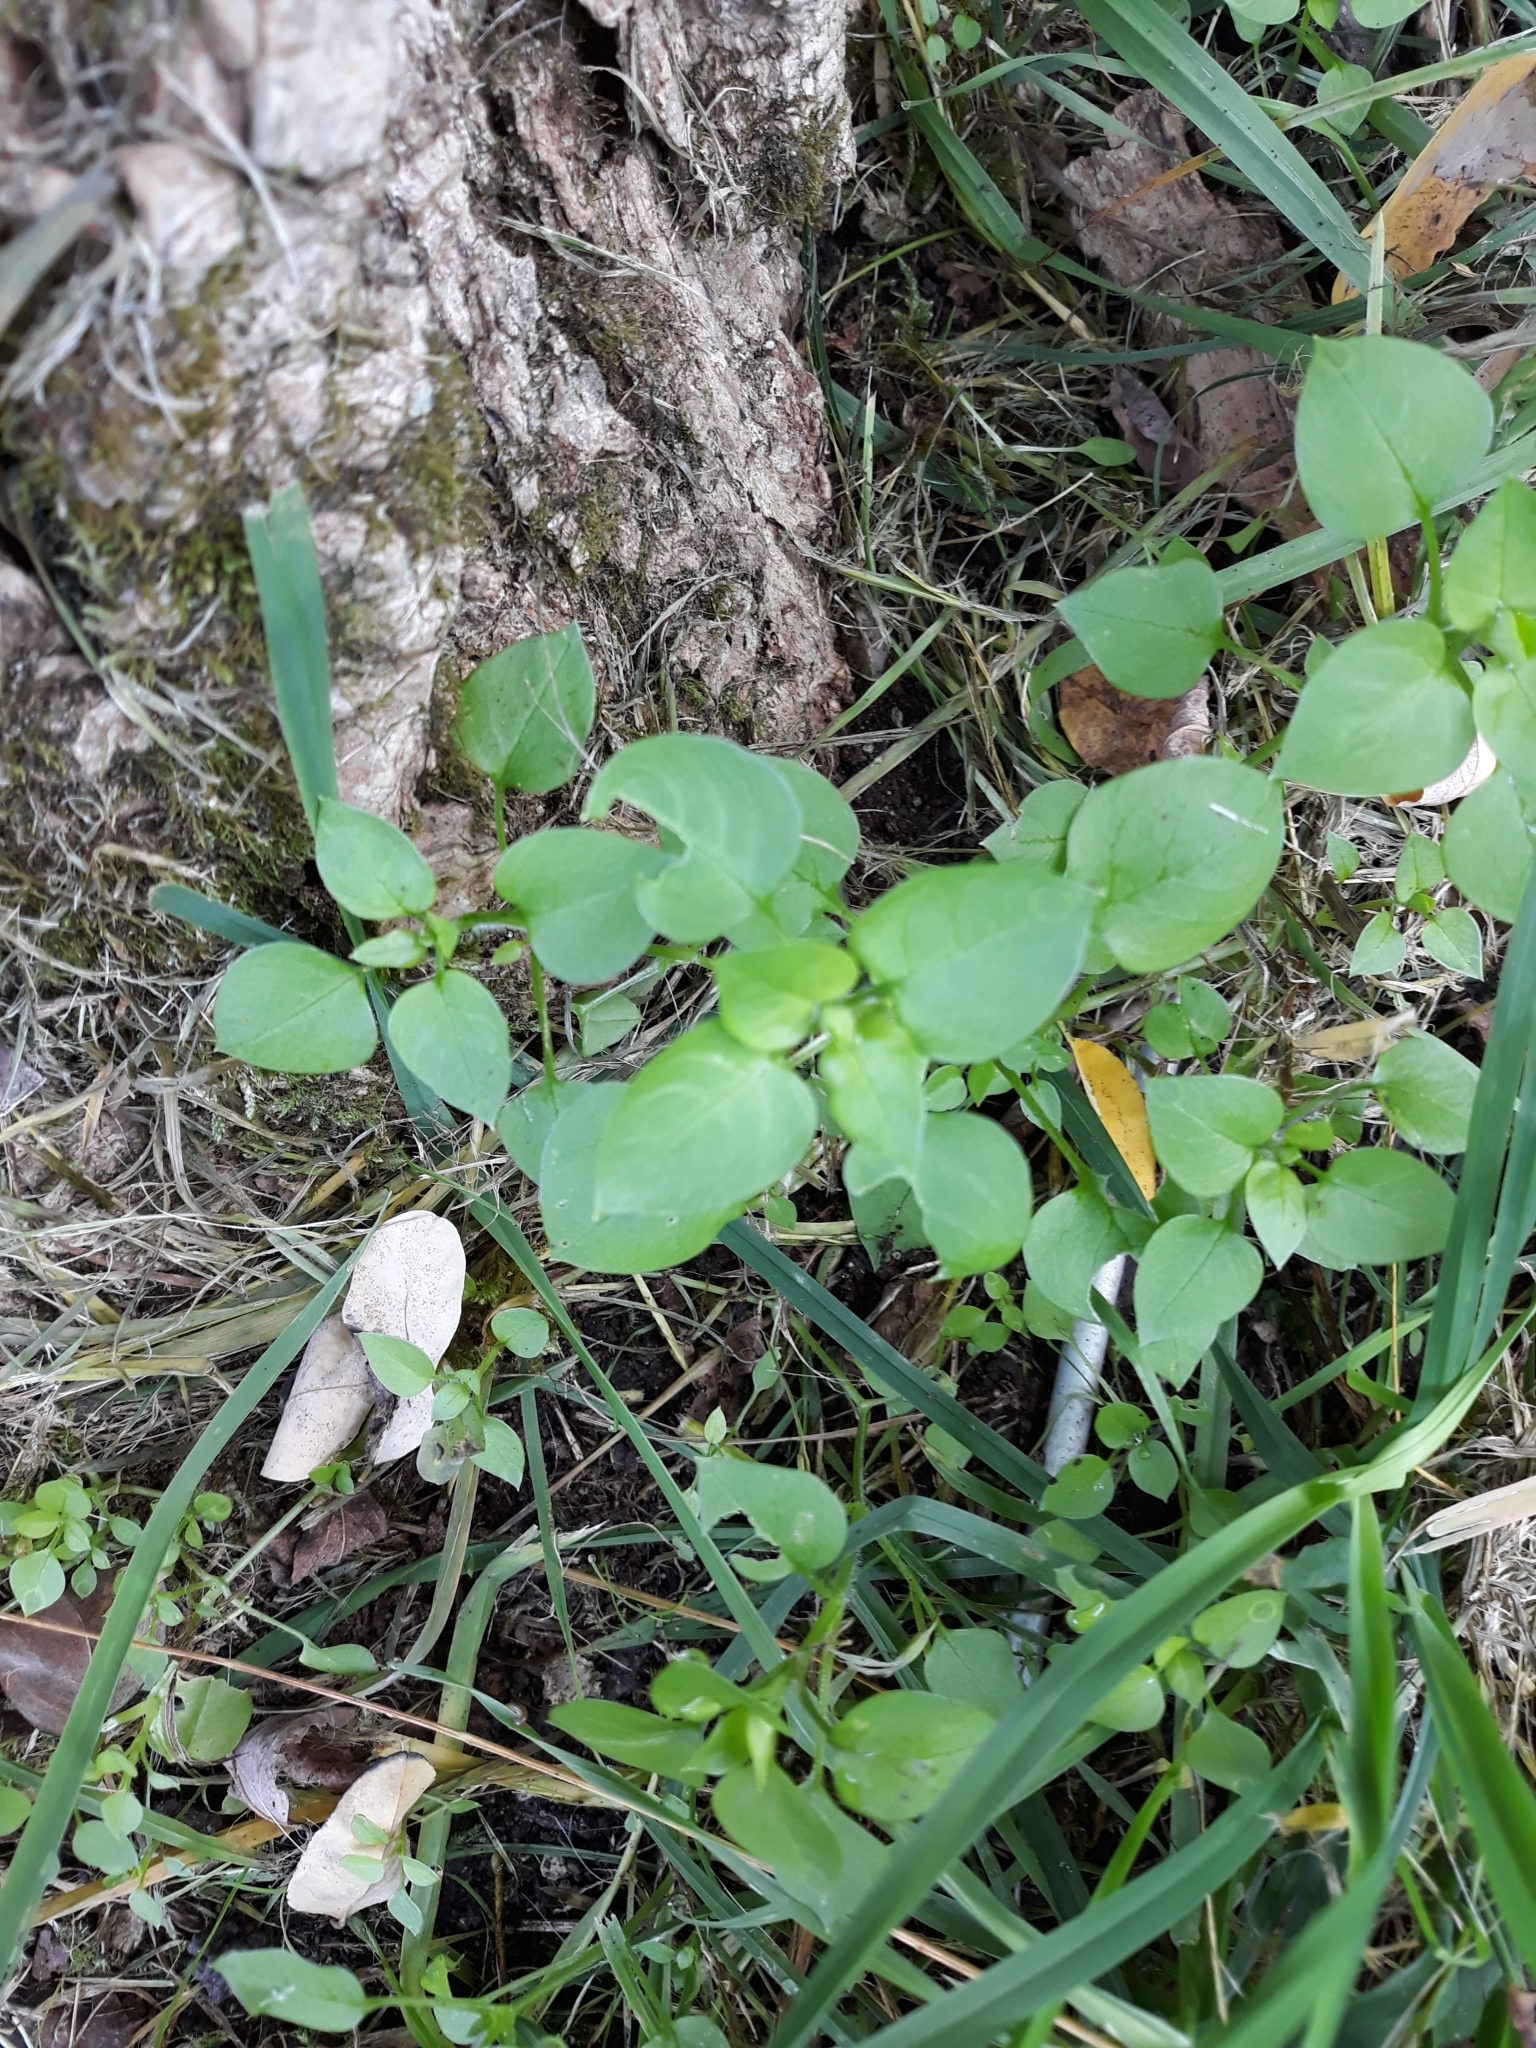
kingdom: Plantae
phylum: Tracheophyta
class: Magnoliopsida
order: Caryophyllales
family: Caryophyllaceae
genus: Stellaria
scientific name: Stellaria media
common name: Common chickweed
